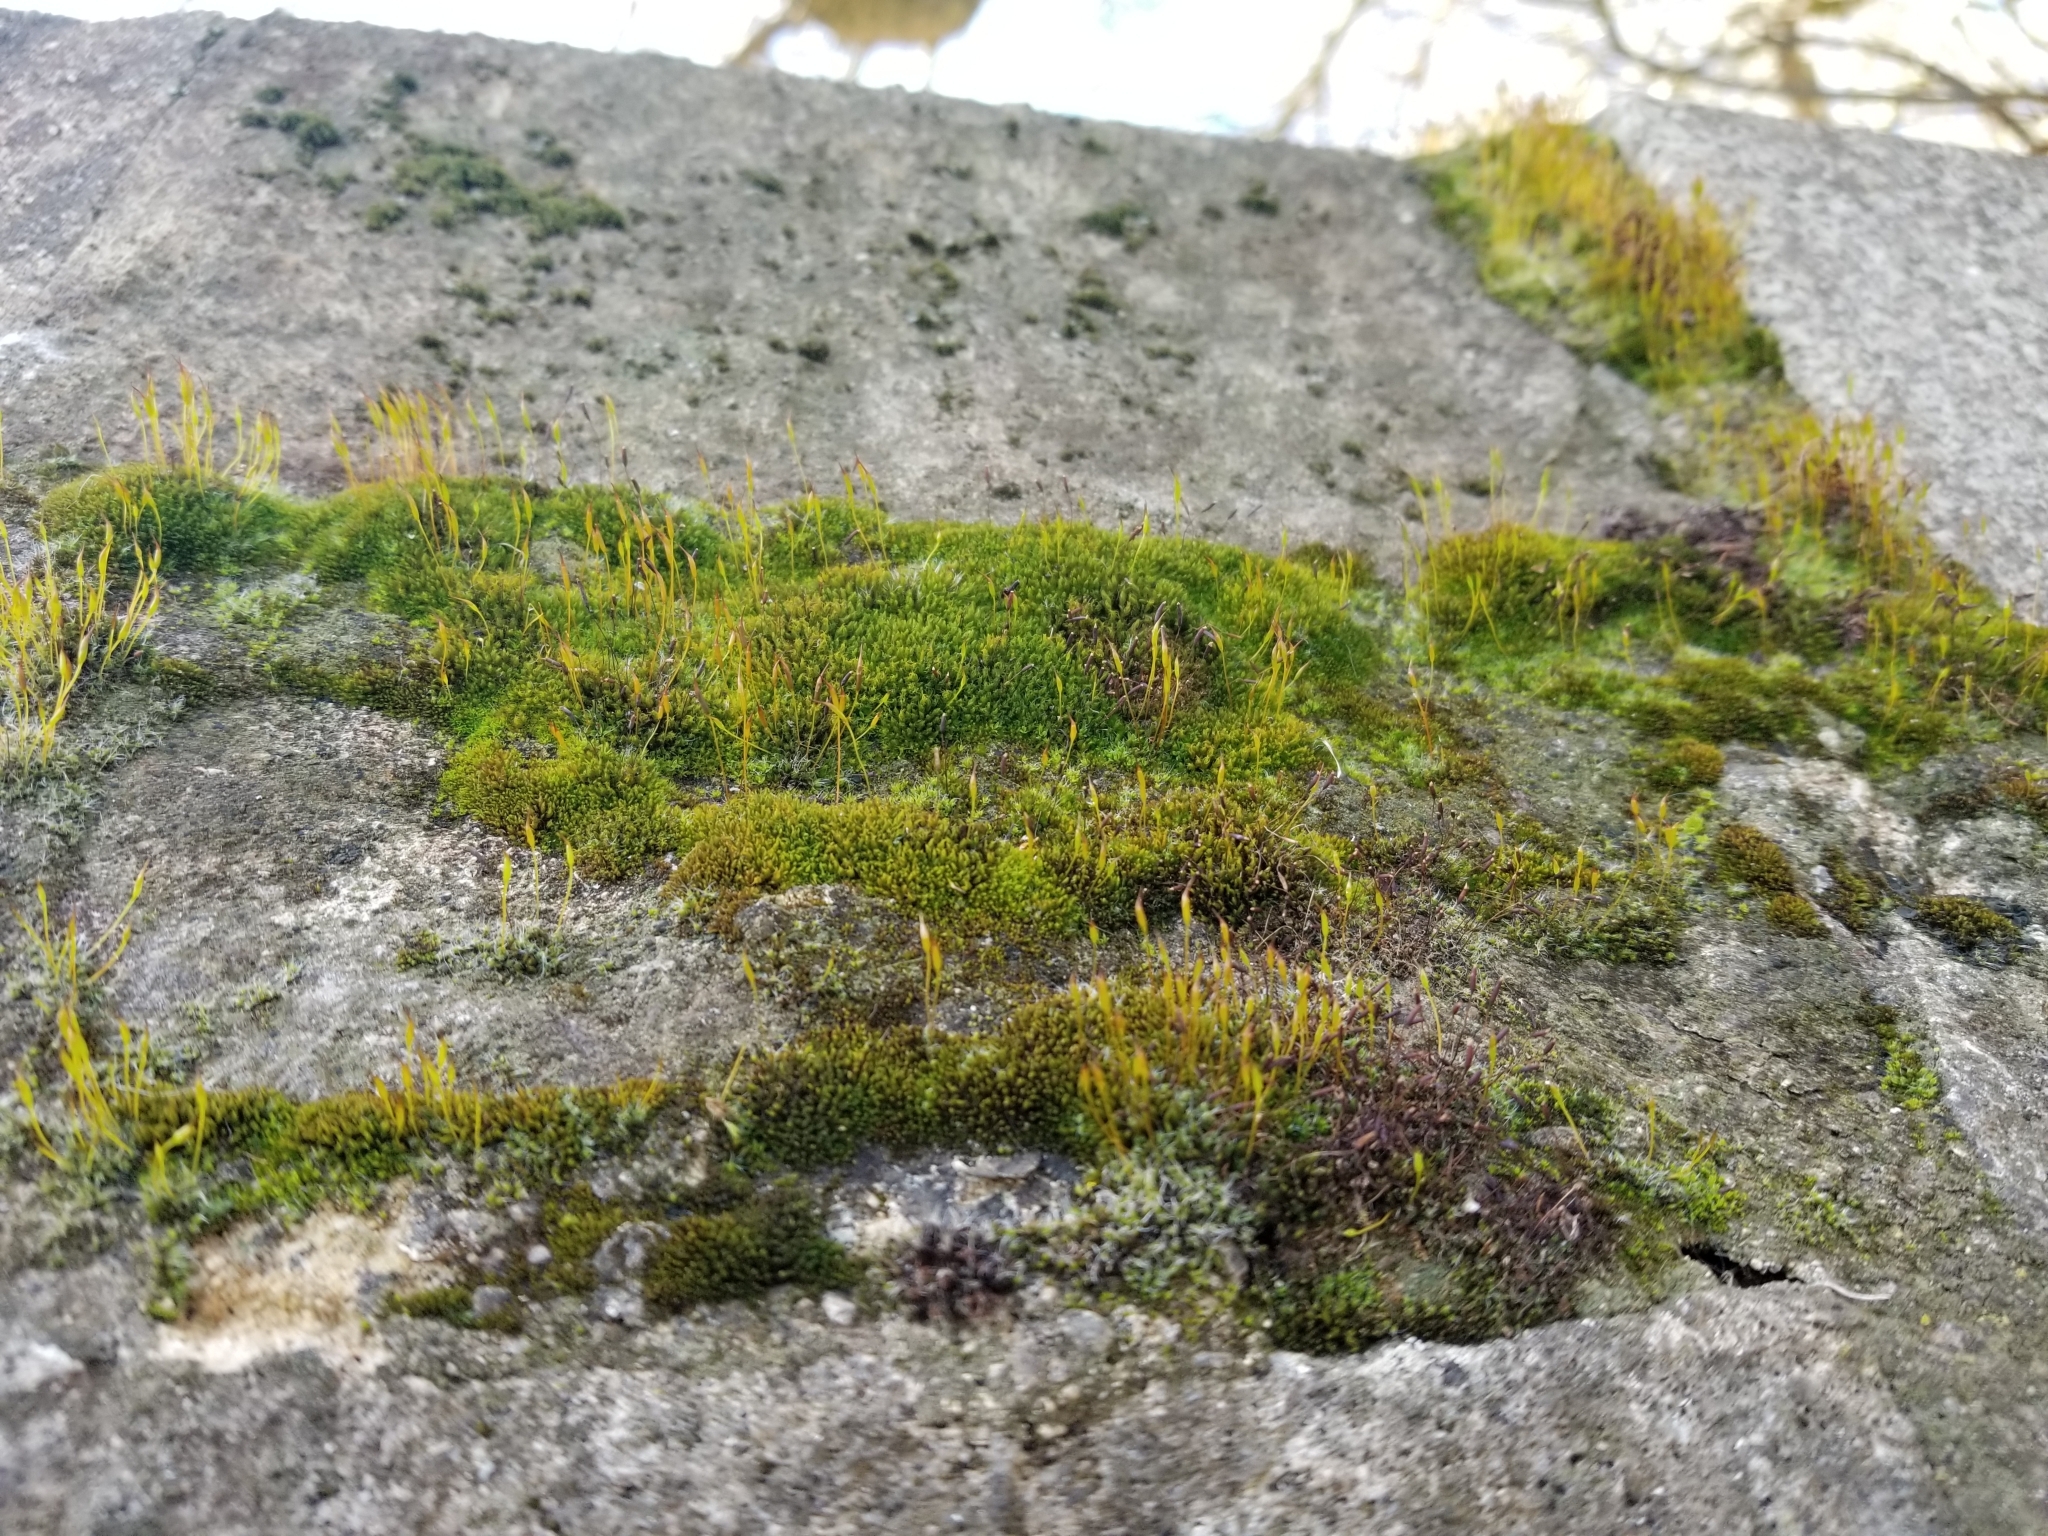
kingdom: Plantae
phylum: Bryophyta
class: Bryopsida
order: Pottiales
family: Pottiaceae
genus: Tortula
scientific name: Tortula muralis
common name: Wall screw-moss
